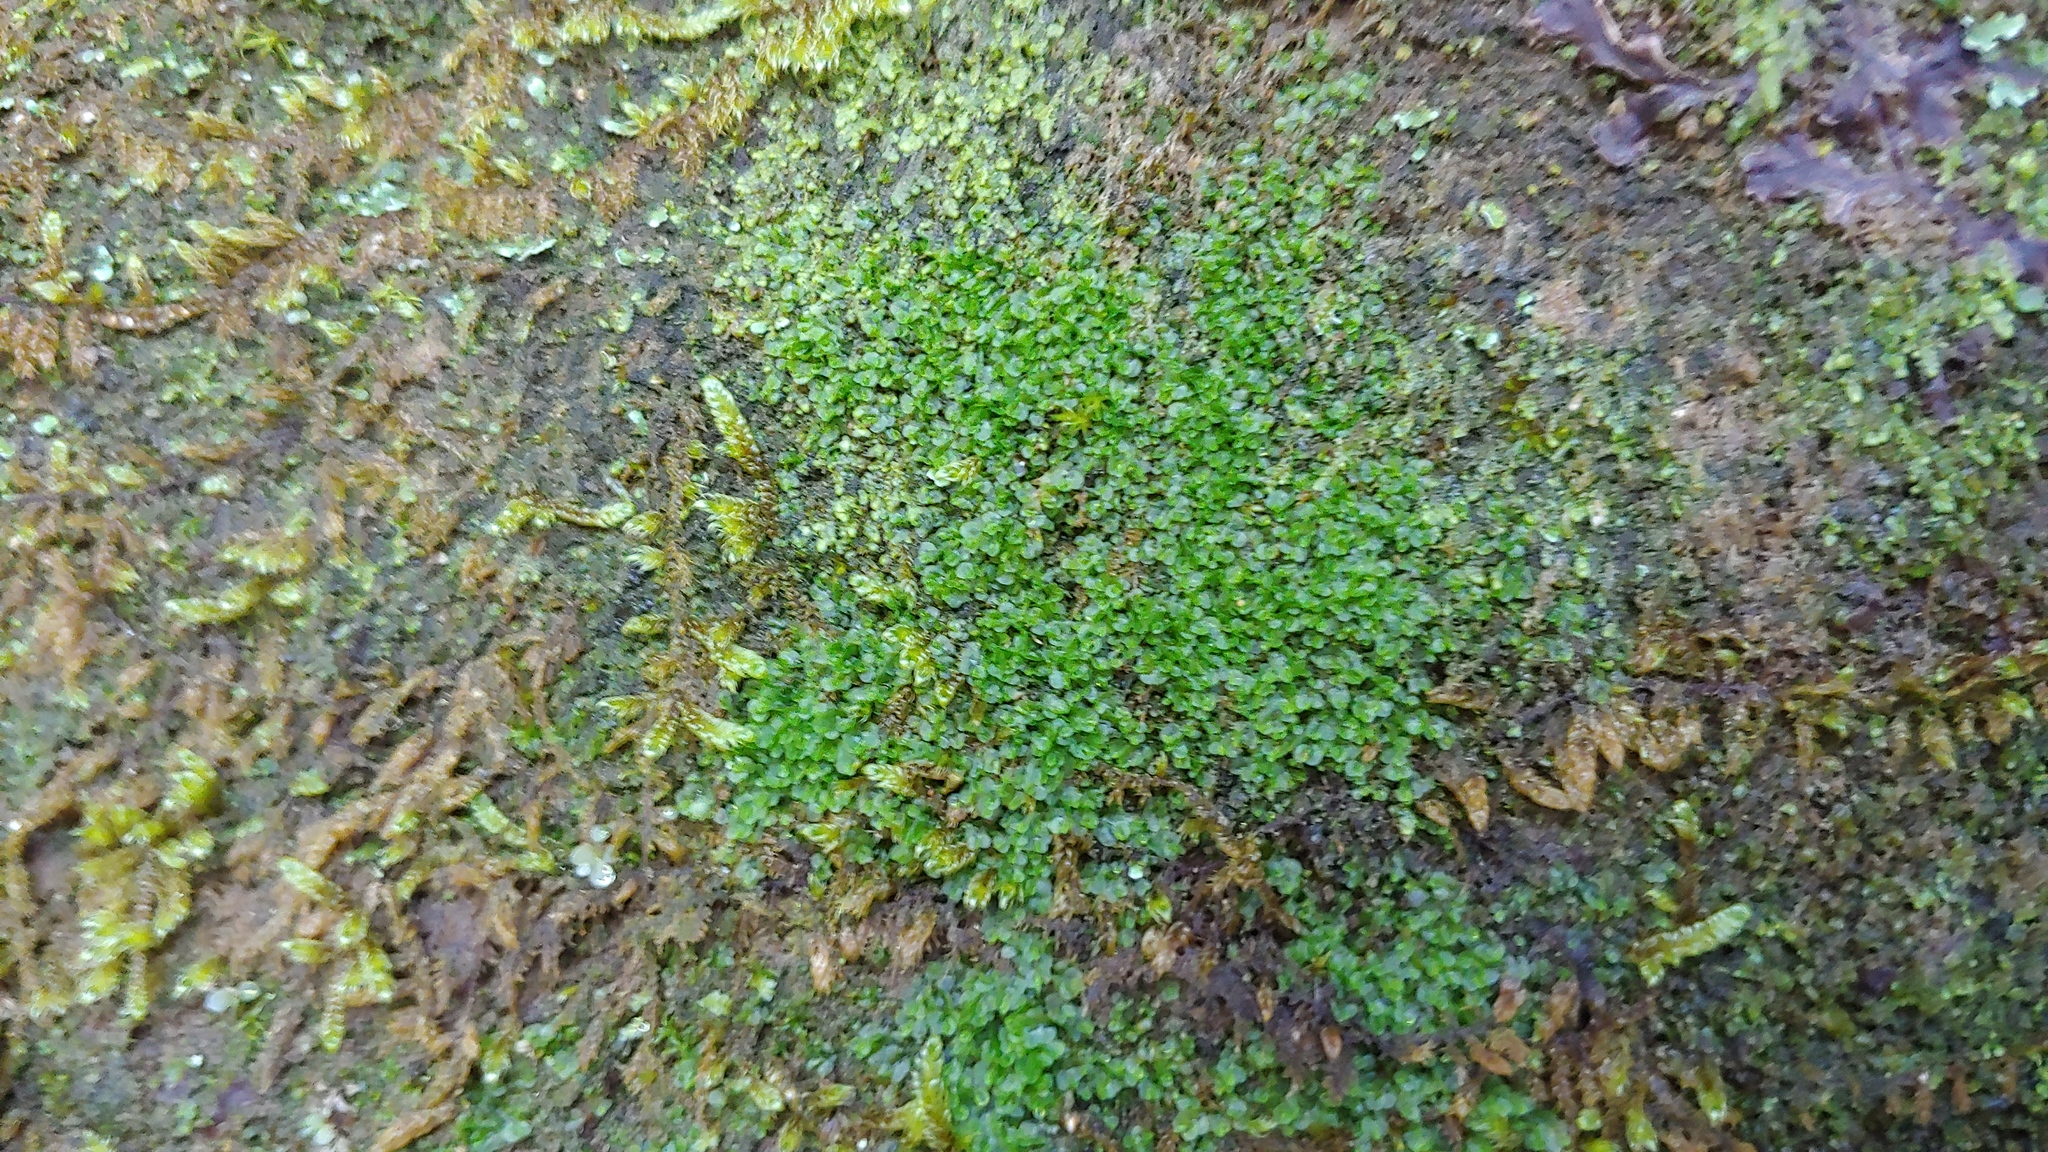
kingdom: Plantae
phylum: Marchantiophyta
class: Jungermanniopsida
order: Pelliales
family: Pelliaceae
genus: Pellia
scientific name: Pellia epiphylla
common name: Common pellia
